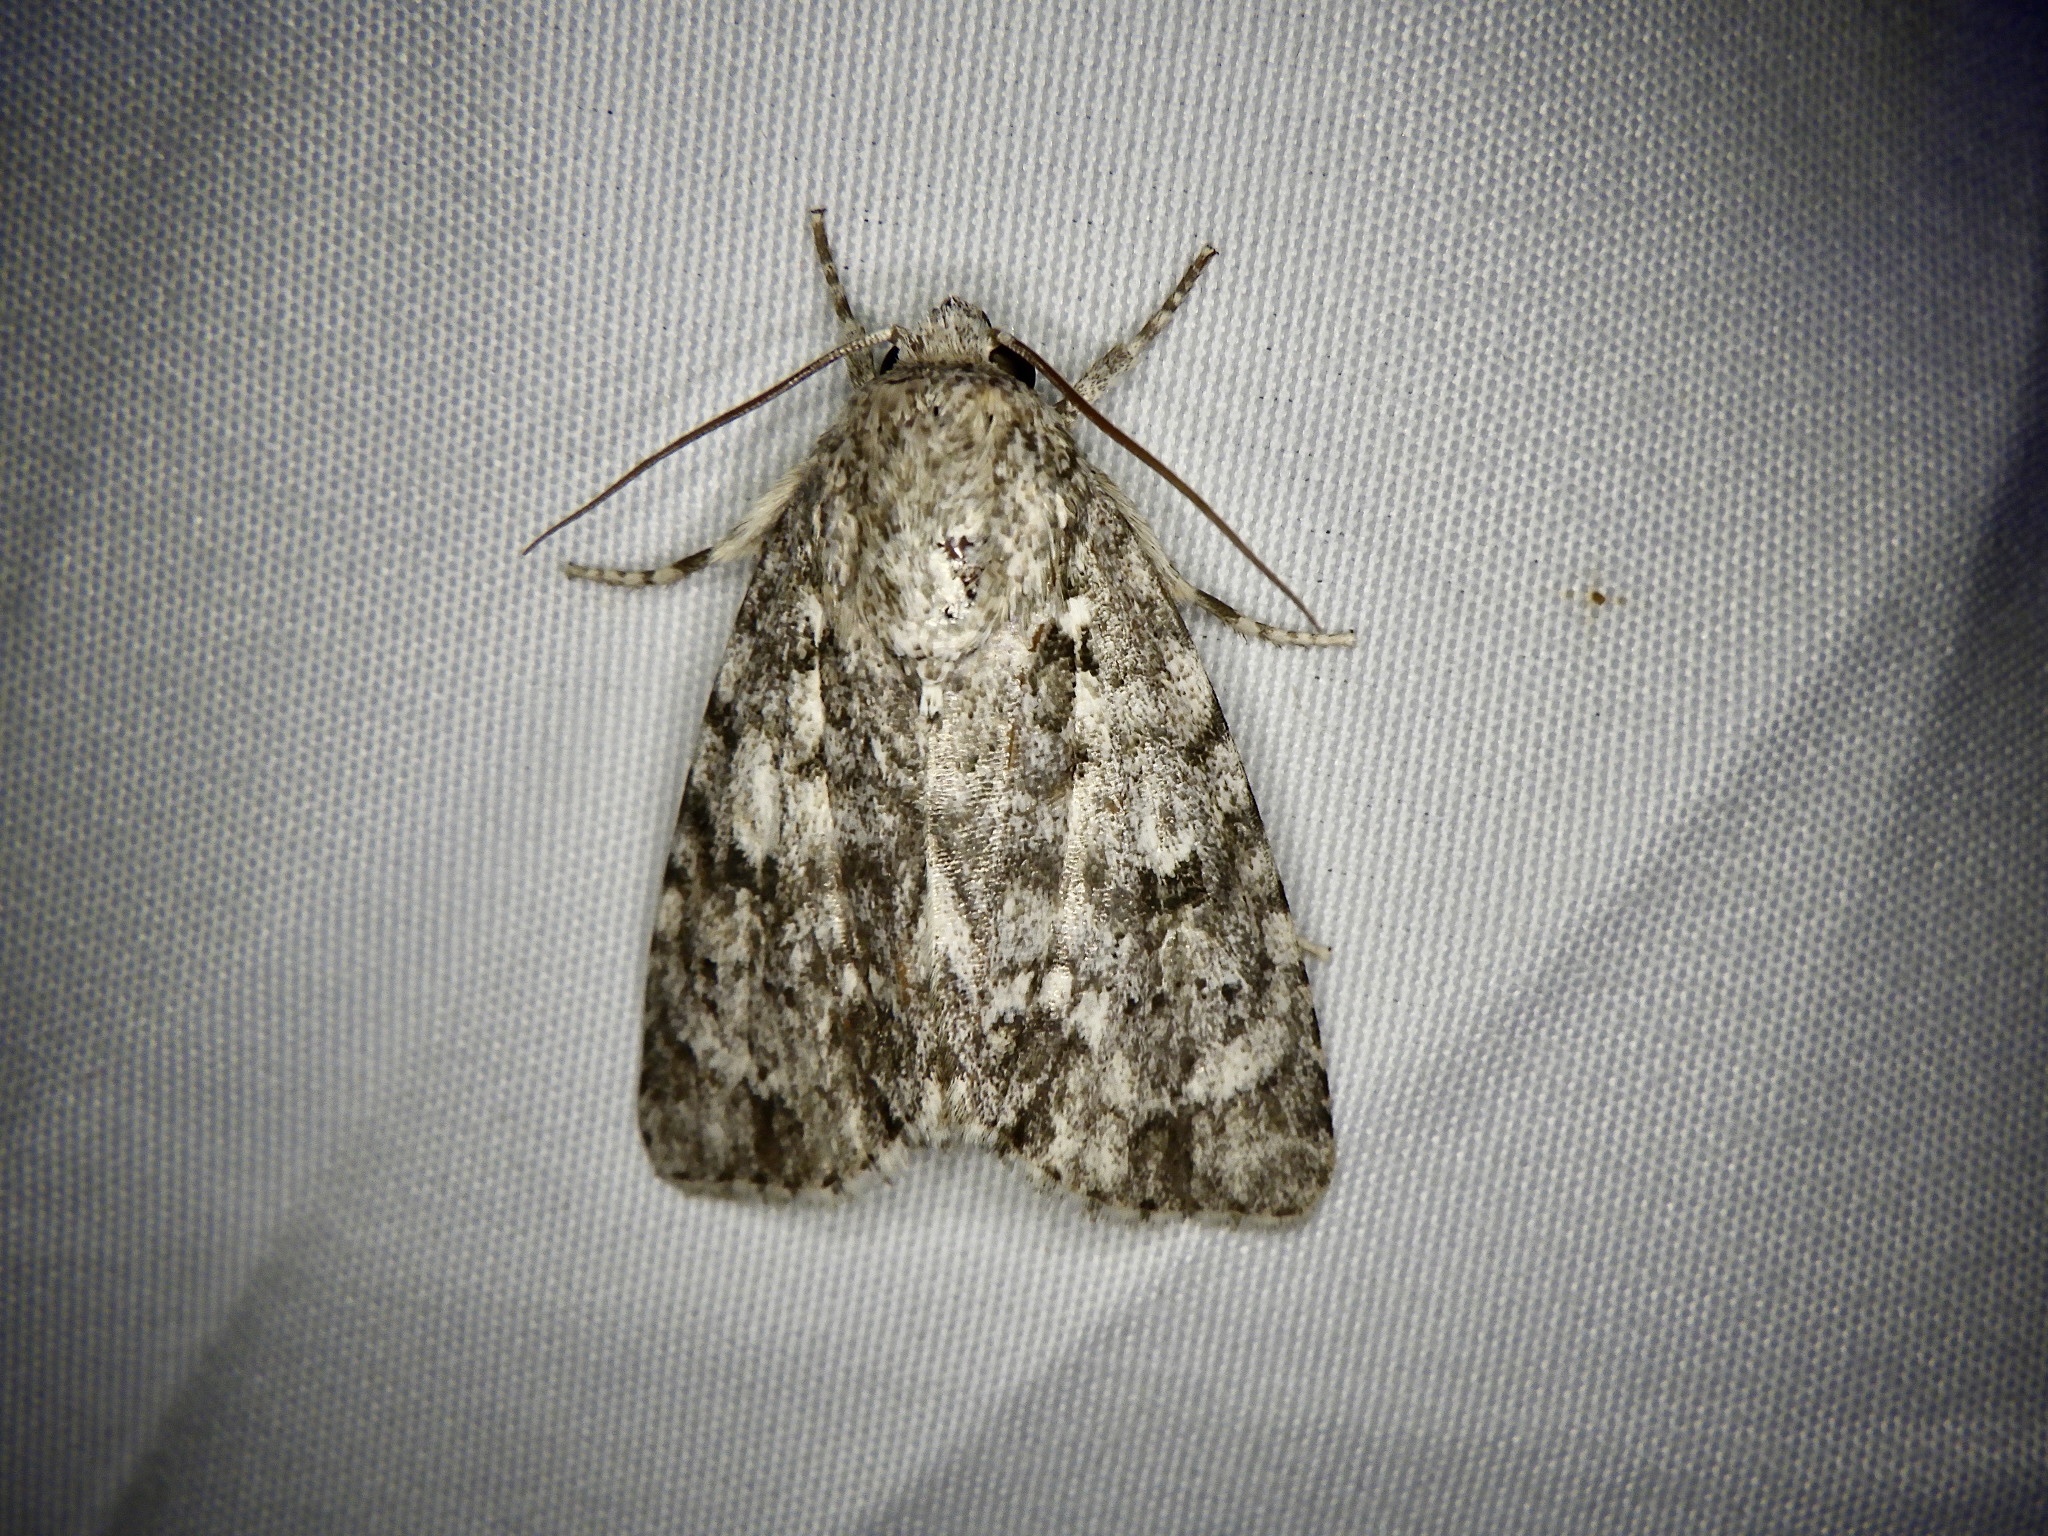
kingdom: Animalia
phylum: Arthropoda
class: Insecta
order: Lepidoptera
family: Noctuidae
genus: Acronicta
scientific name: Acronicta pruinosa
